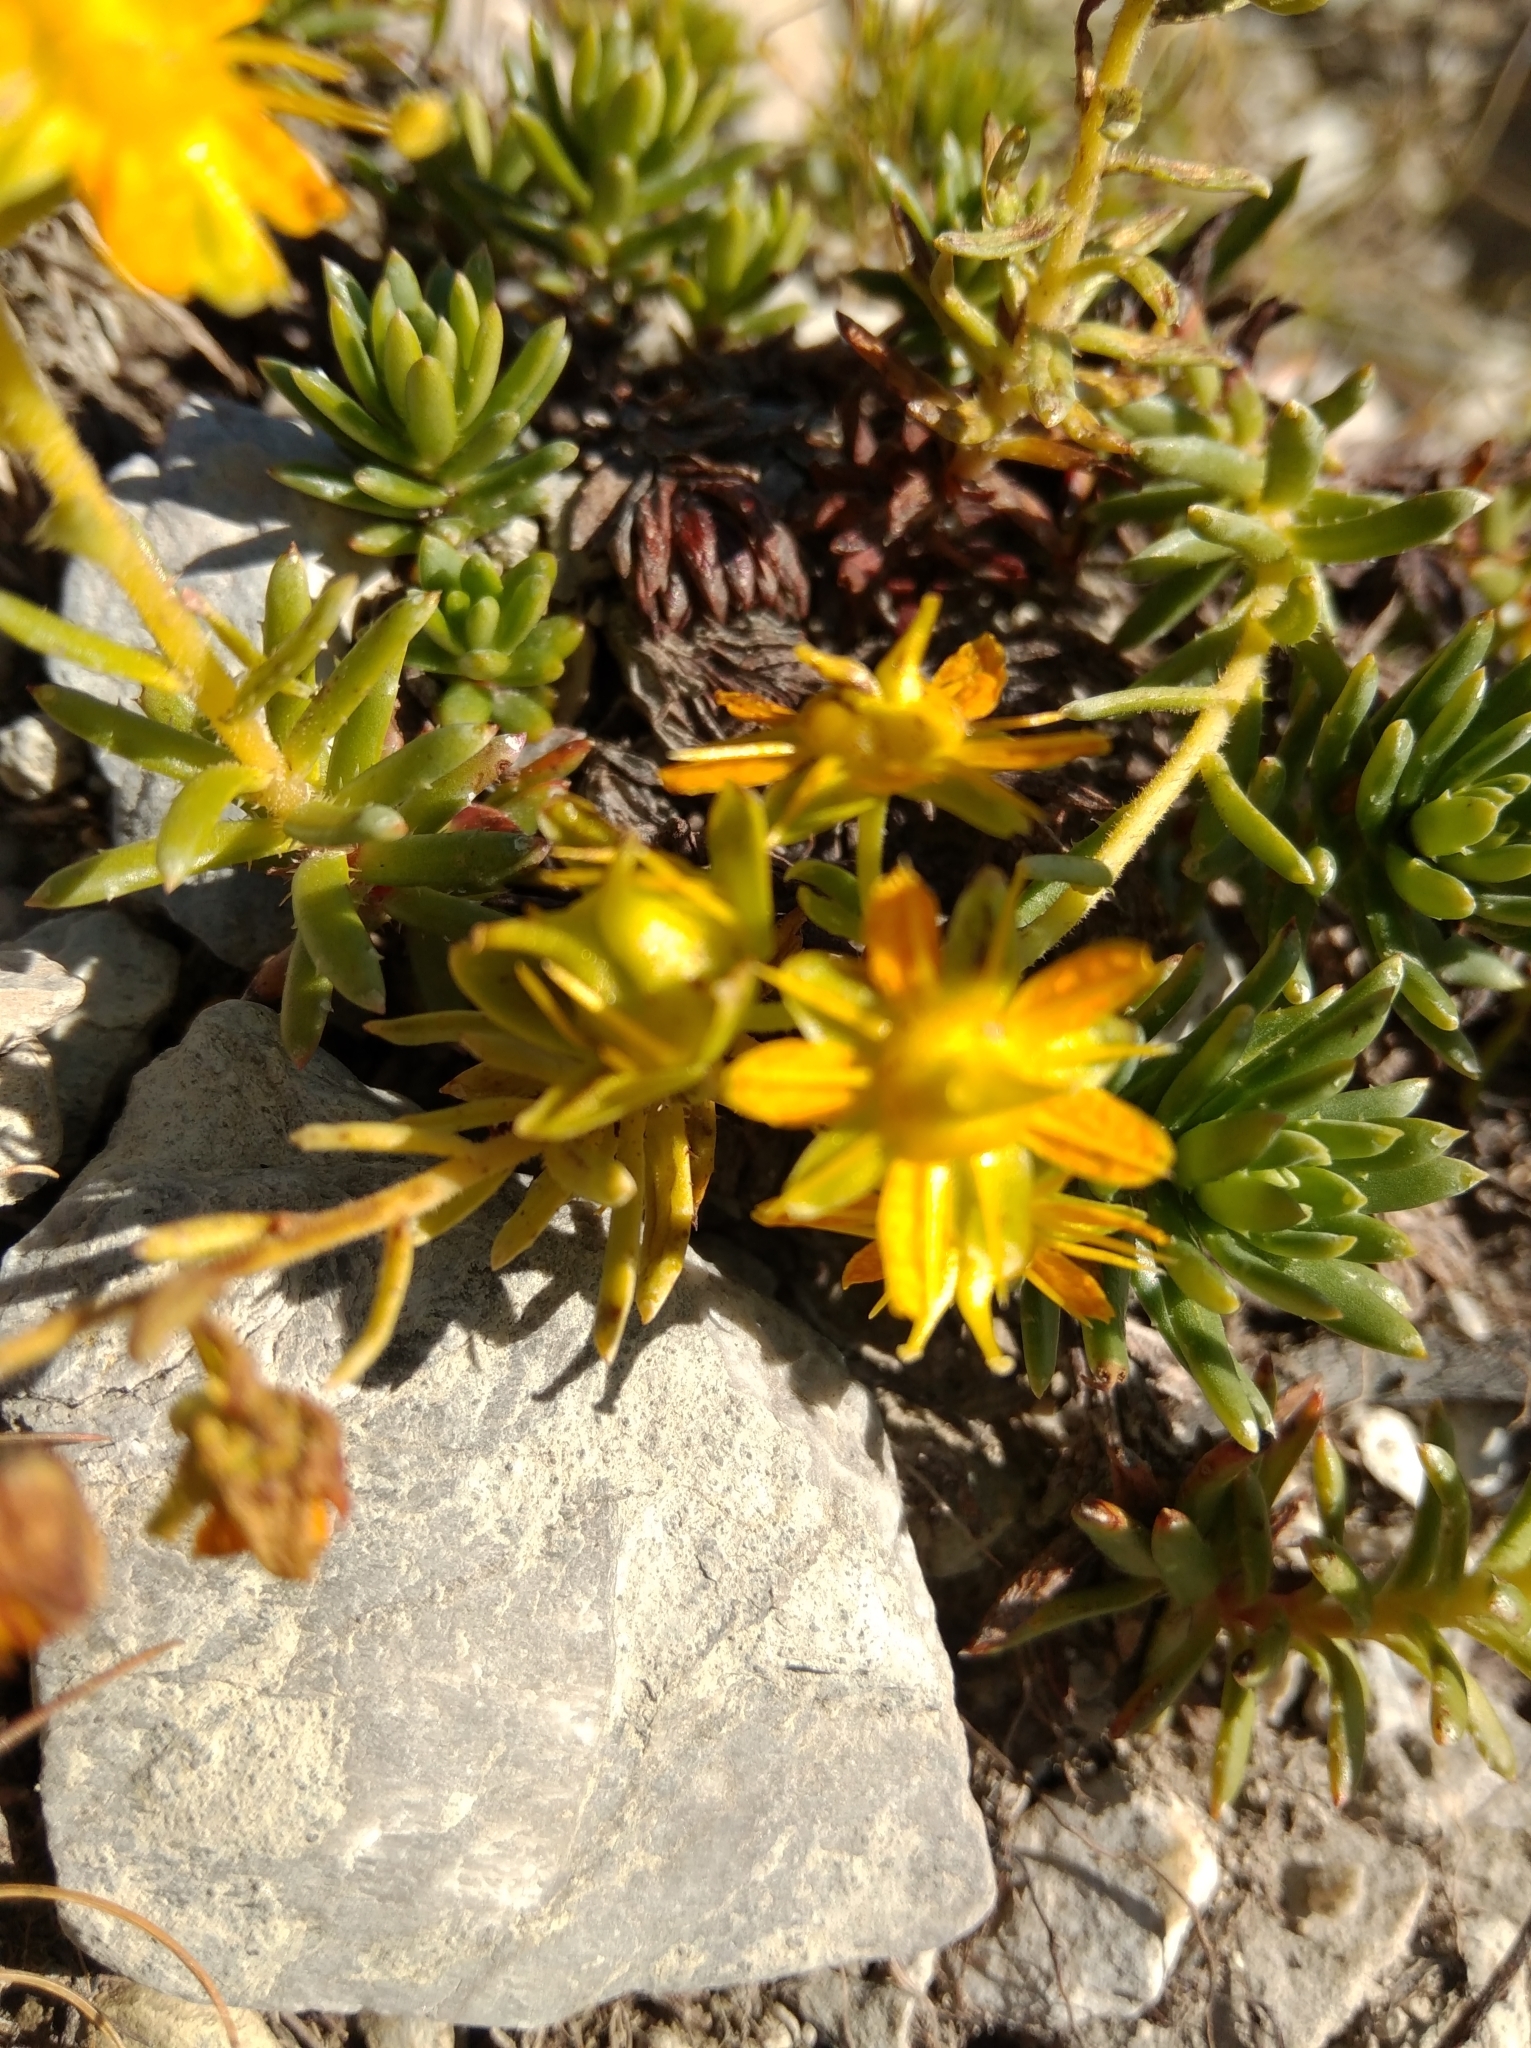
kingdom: Plantae
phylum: Tracheophyta
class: Magnoliopsida
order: Saxifragales
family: Saxifragaceae
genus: Saxifraga
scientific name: Saxifraga aizoides
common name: Yellow mountain saxifrage
